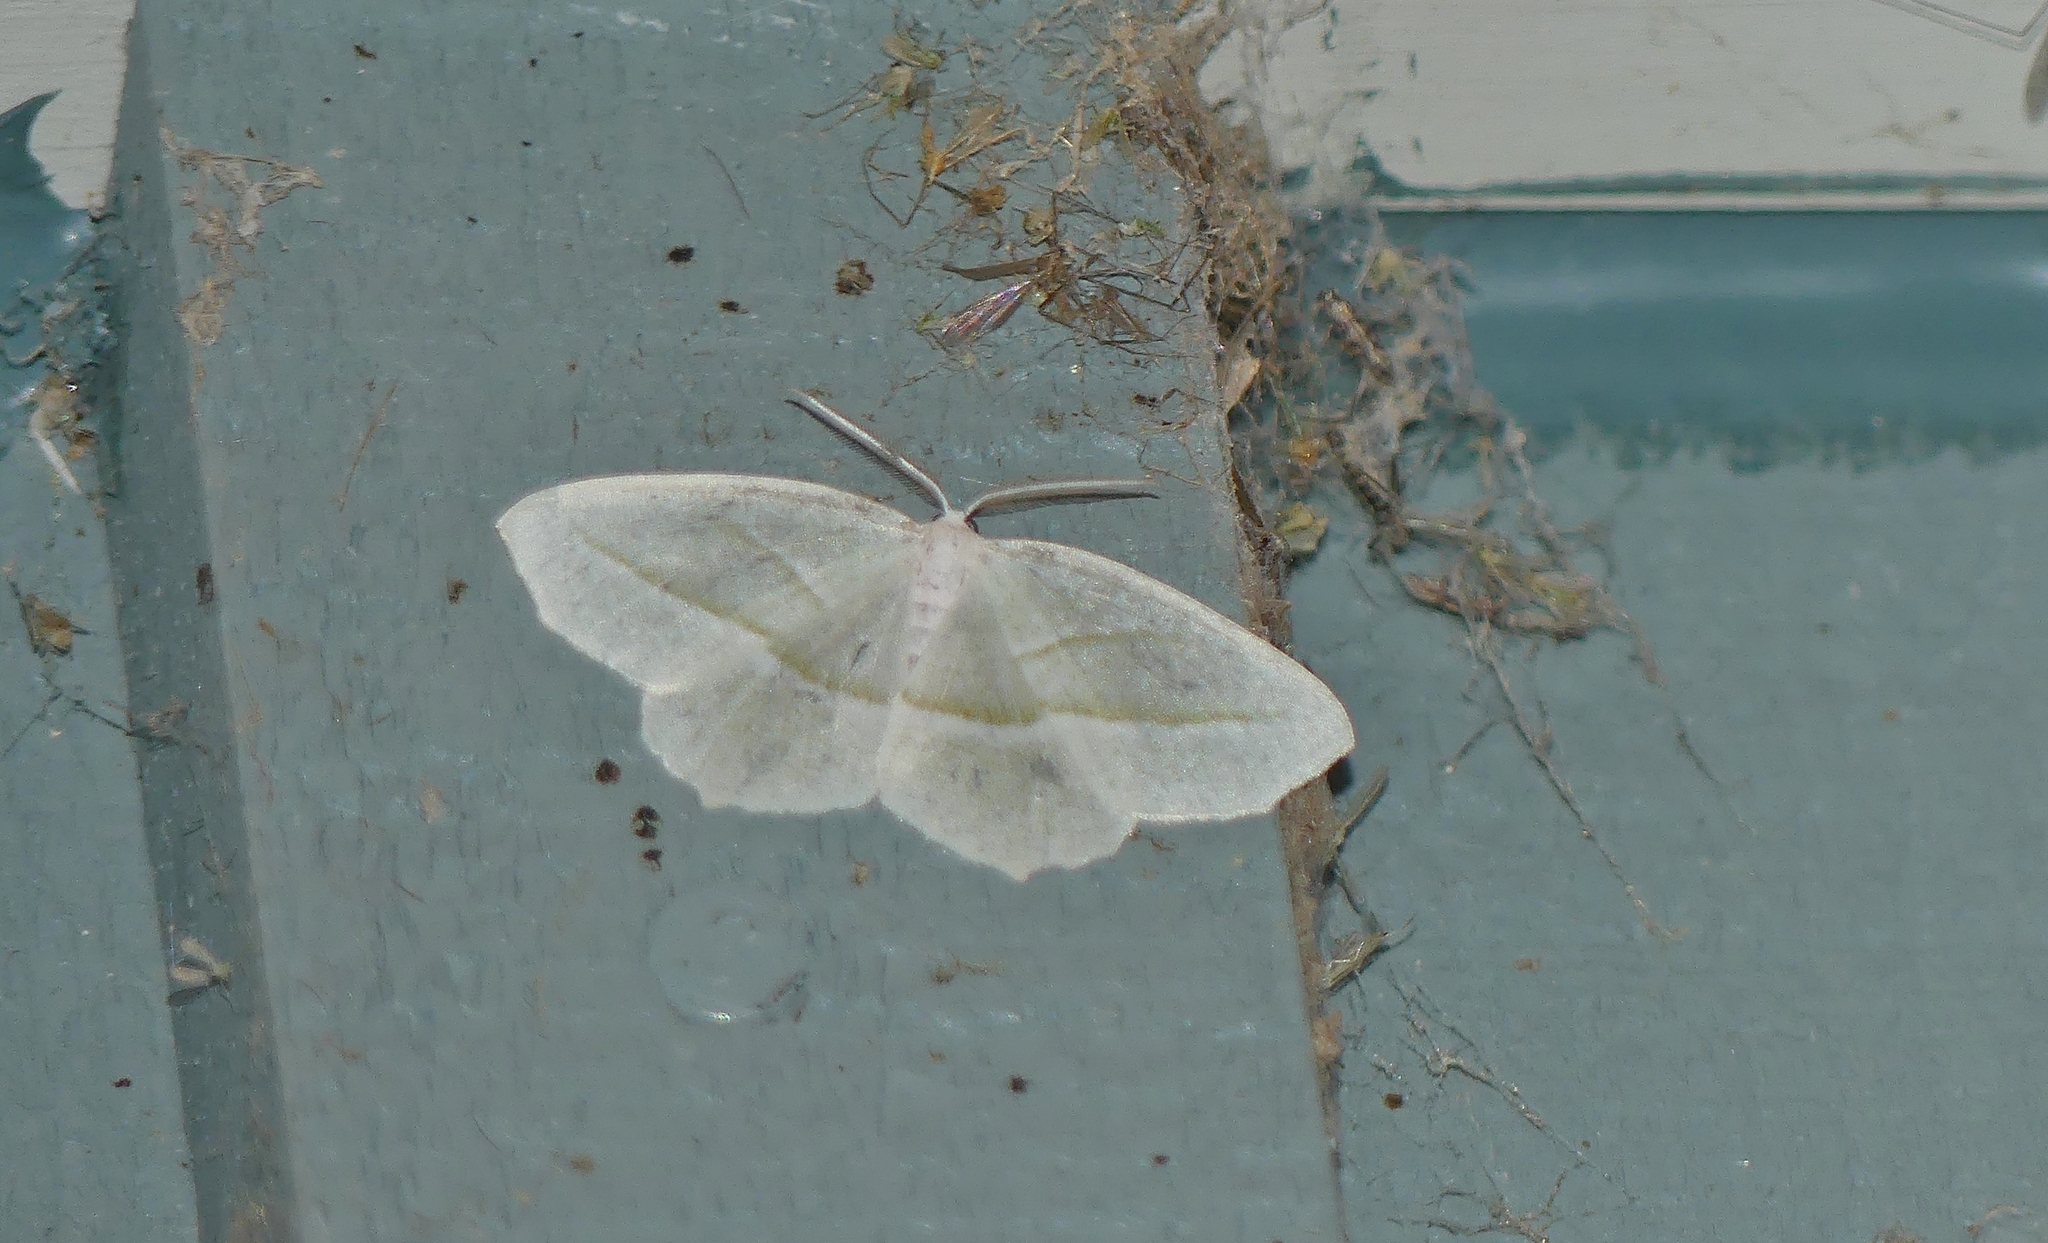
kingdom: Animalia
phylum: Arthropoda
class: Insecta
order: Lepidoptera
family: Geometridae
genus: Campaea
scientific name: Campaea perlata
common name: Fringed looper
